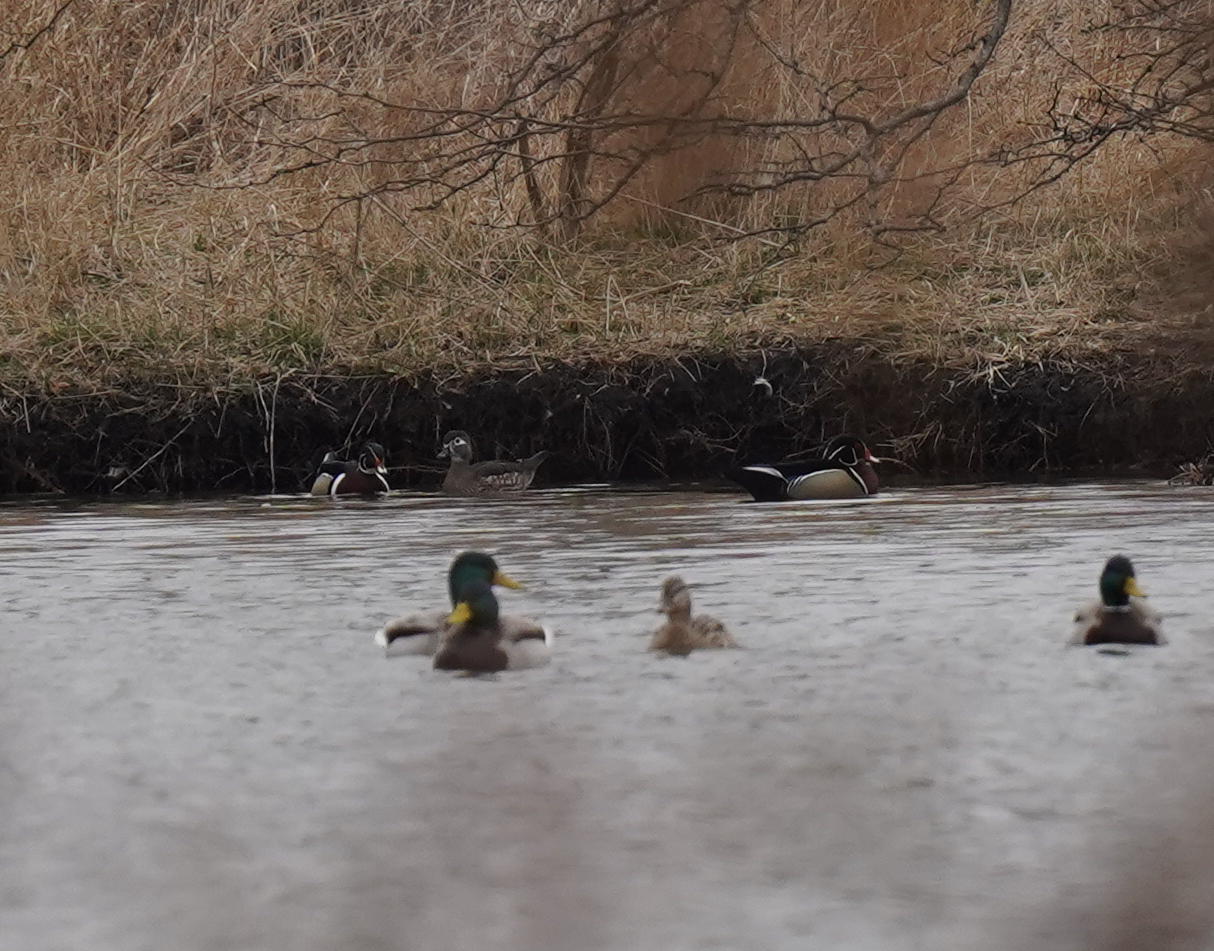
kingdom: Animalia
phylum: Chordata
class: Aves
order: Anseriformes
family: Anatidae
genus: Aix
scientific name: Aix sponsa
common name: Wood duck
